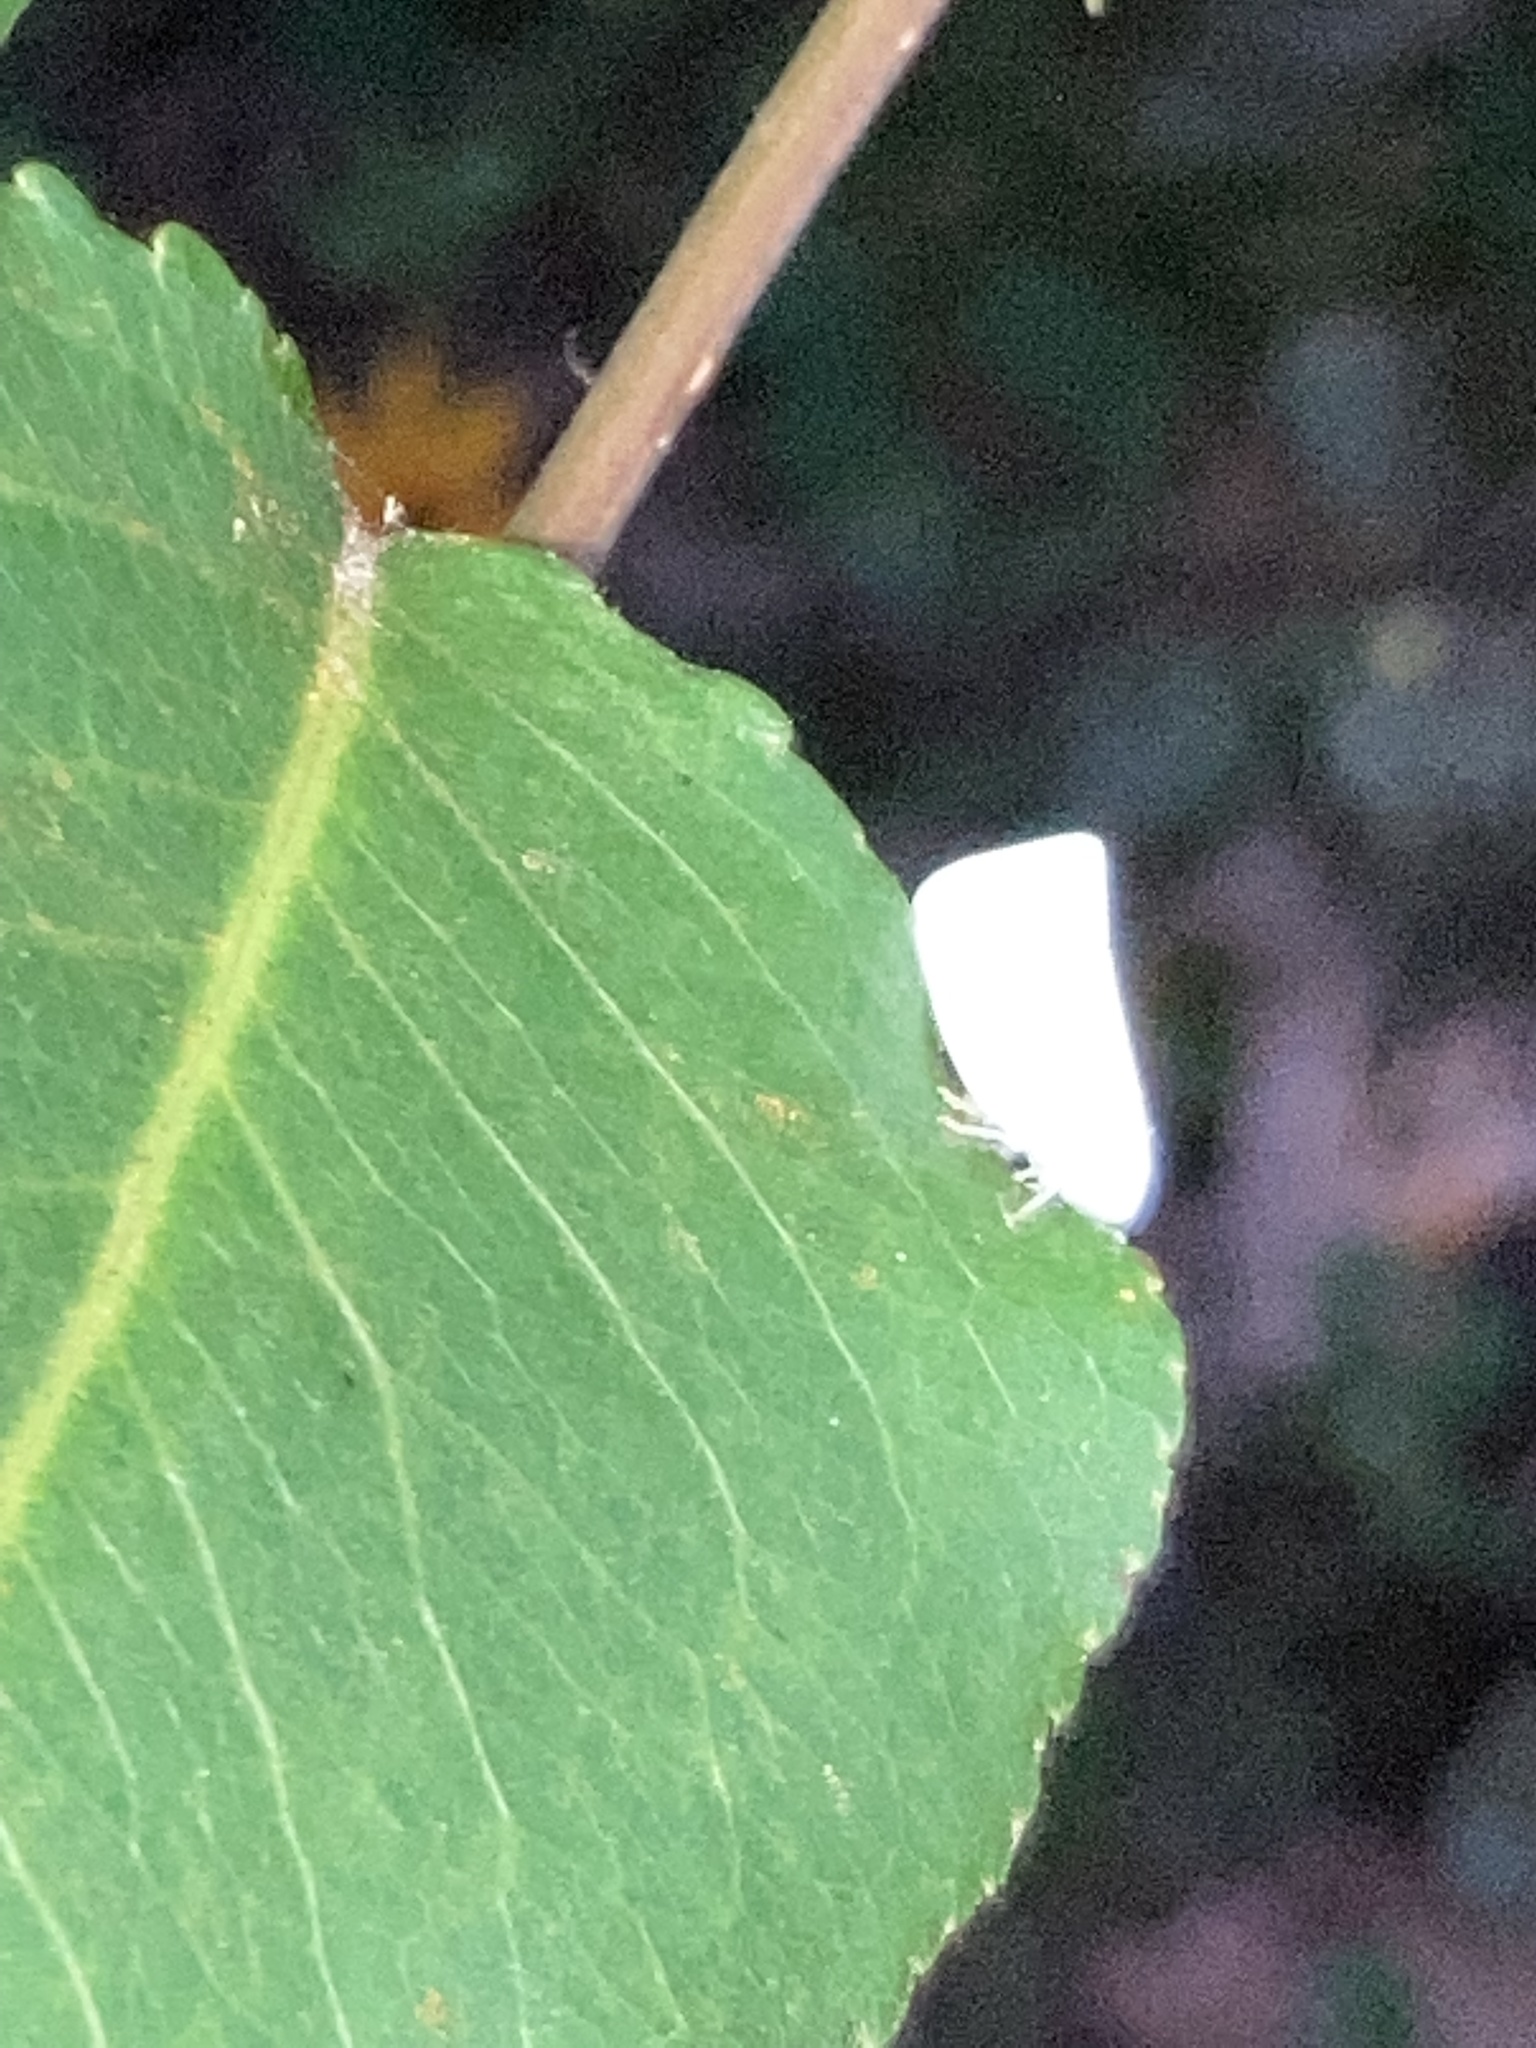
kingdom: Animalia
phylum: Arthropoda
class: Insecta
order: Hemiptera
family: Flatidae
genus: Flatormenis
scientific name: Flatormenis proxima
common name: Northern flatid planthopper
